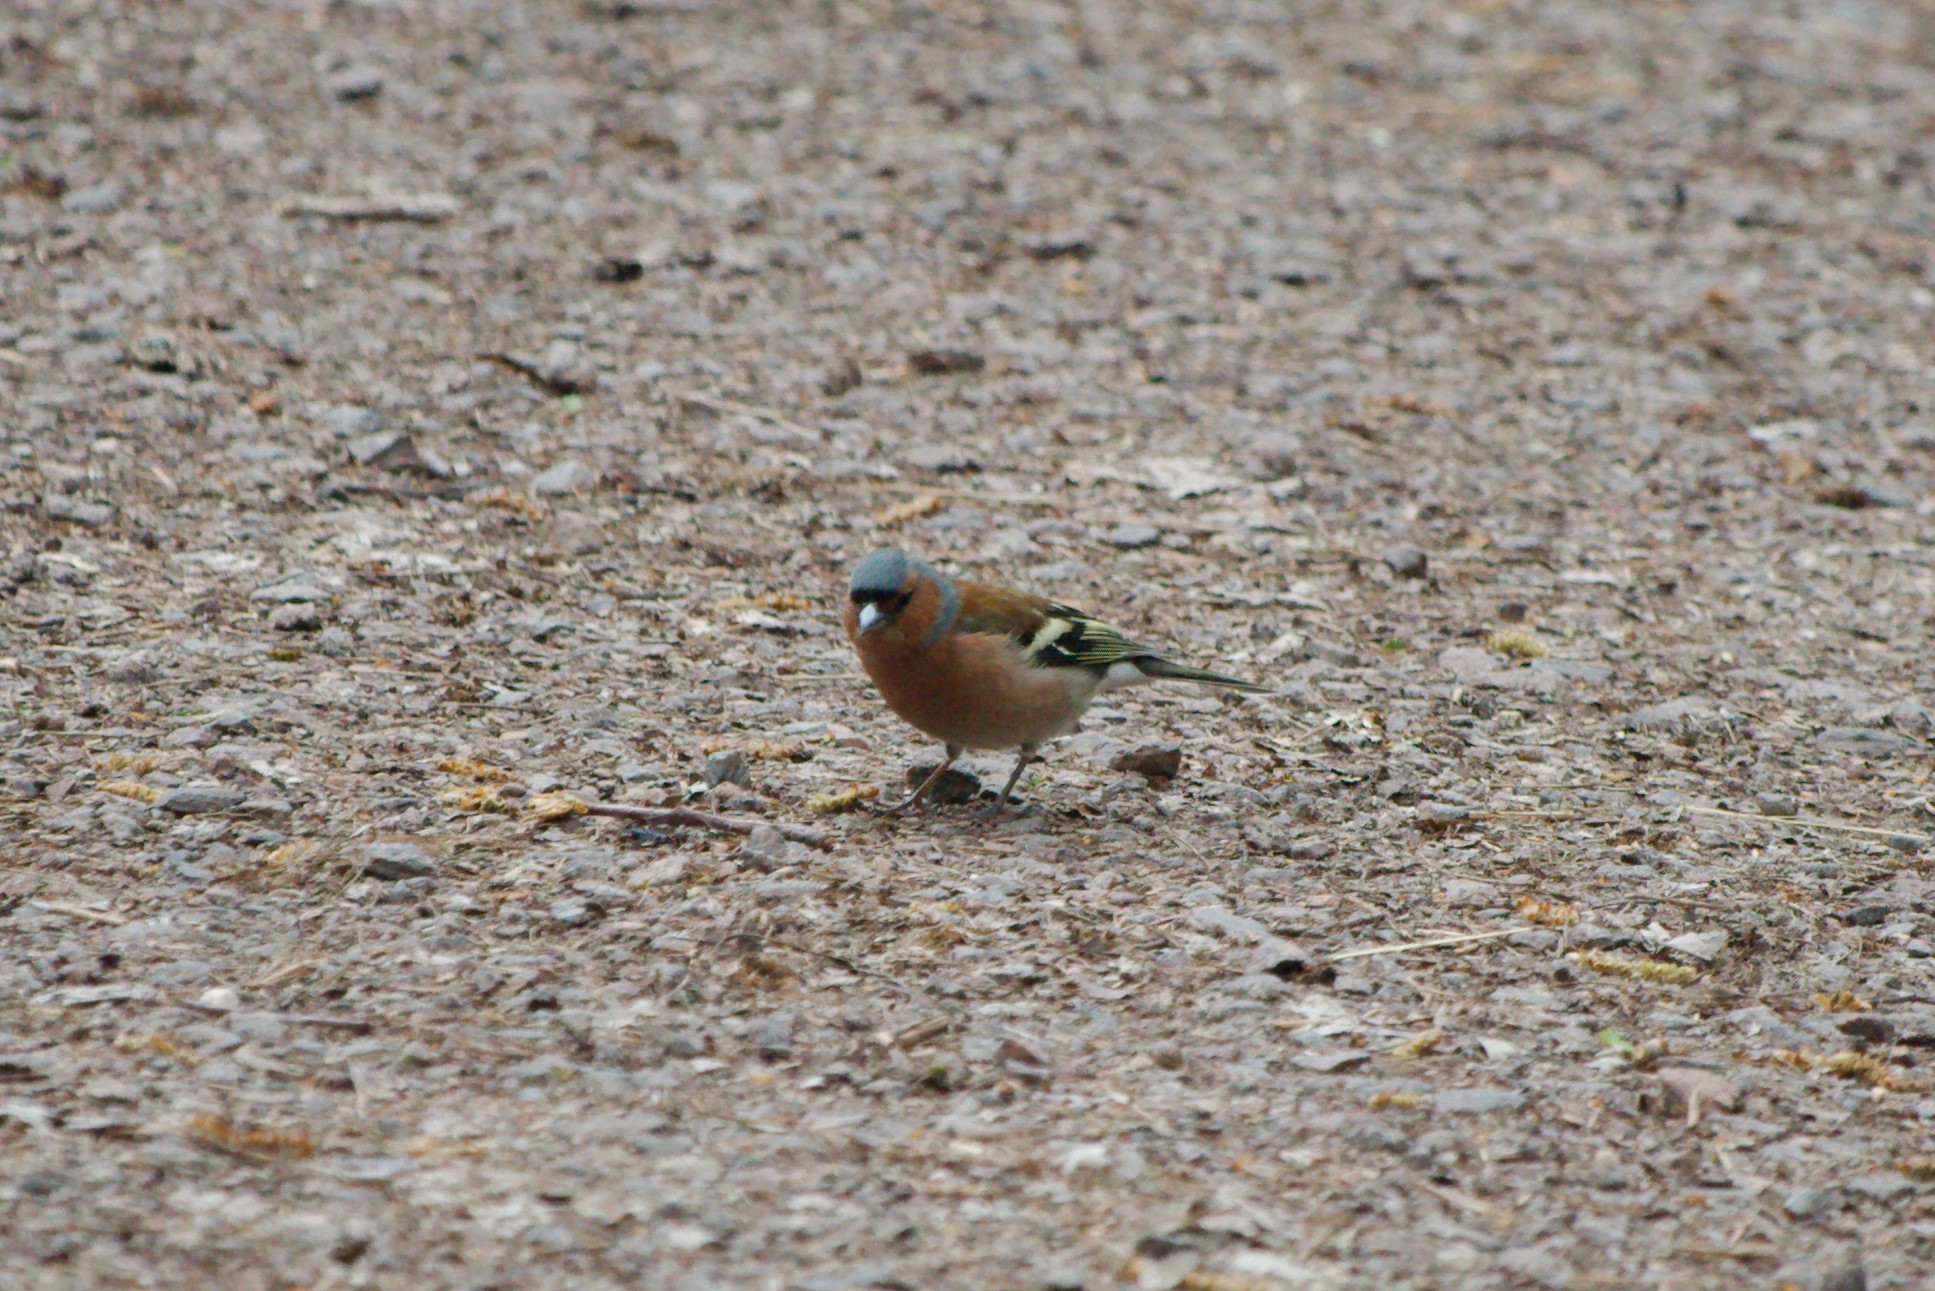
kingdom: Animalia
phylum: Chordata
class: Aves
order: Passeriformes
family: Fringillidae
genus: Fringilla
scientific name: Fringilla coelebs
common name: Common chaffinch
